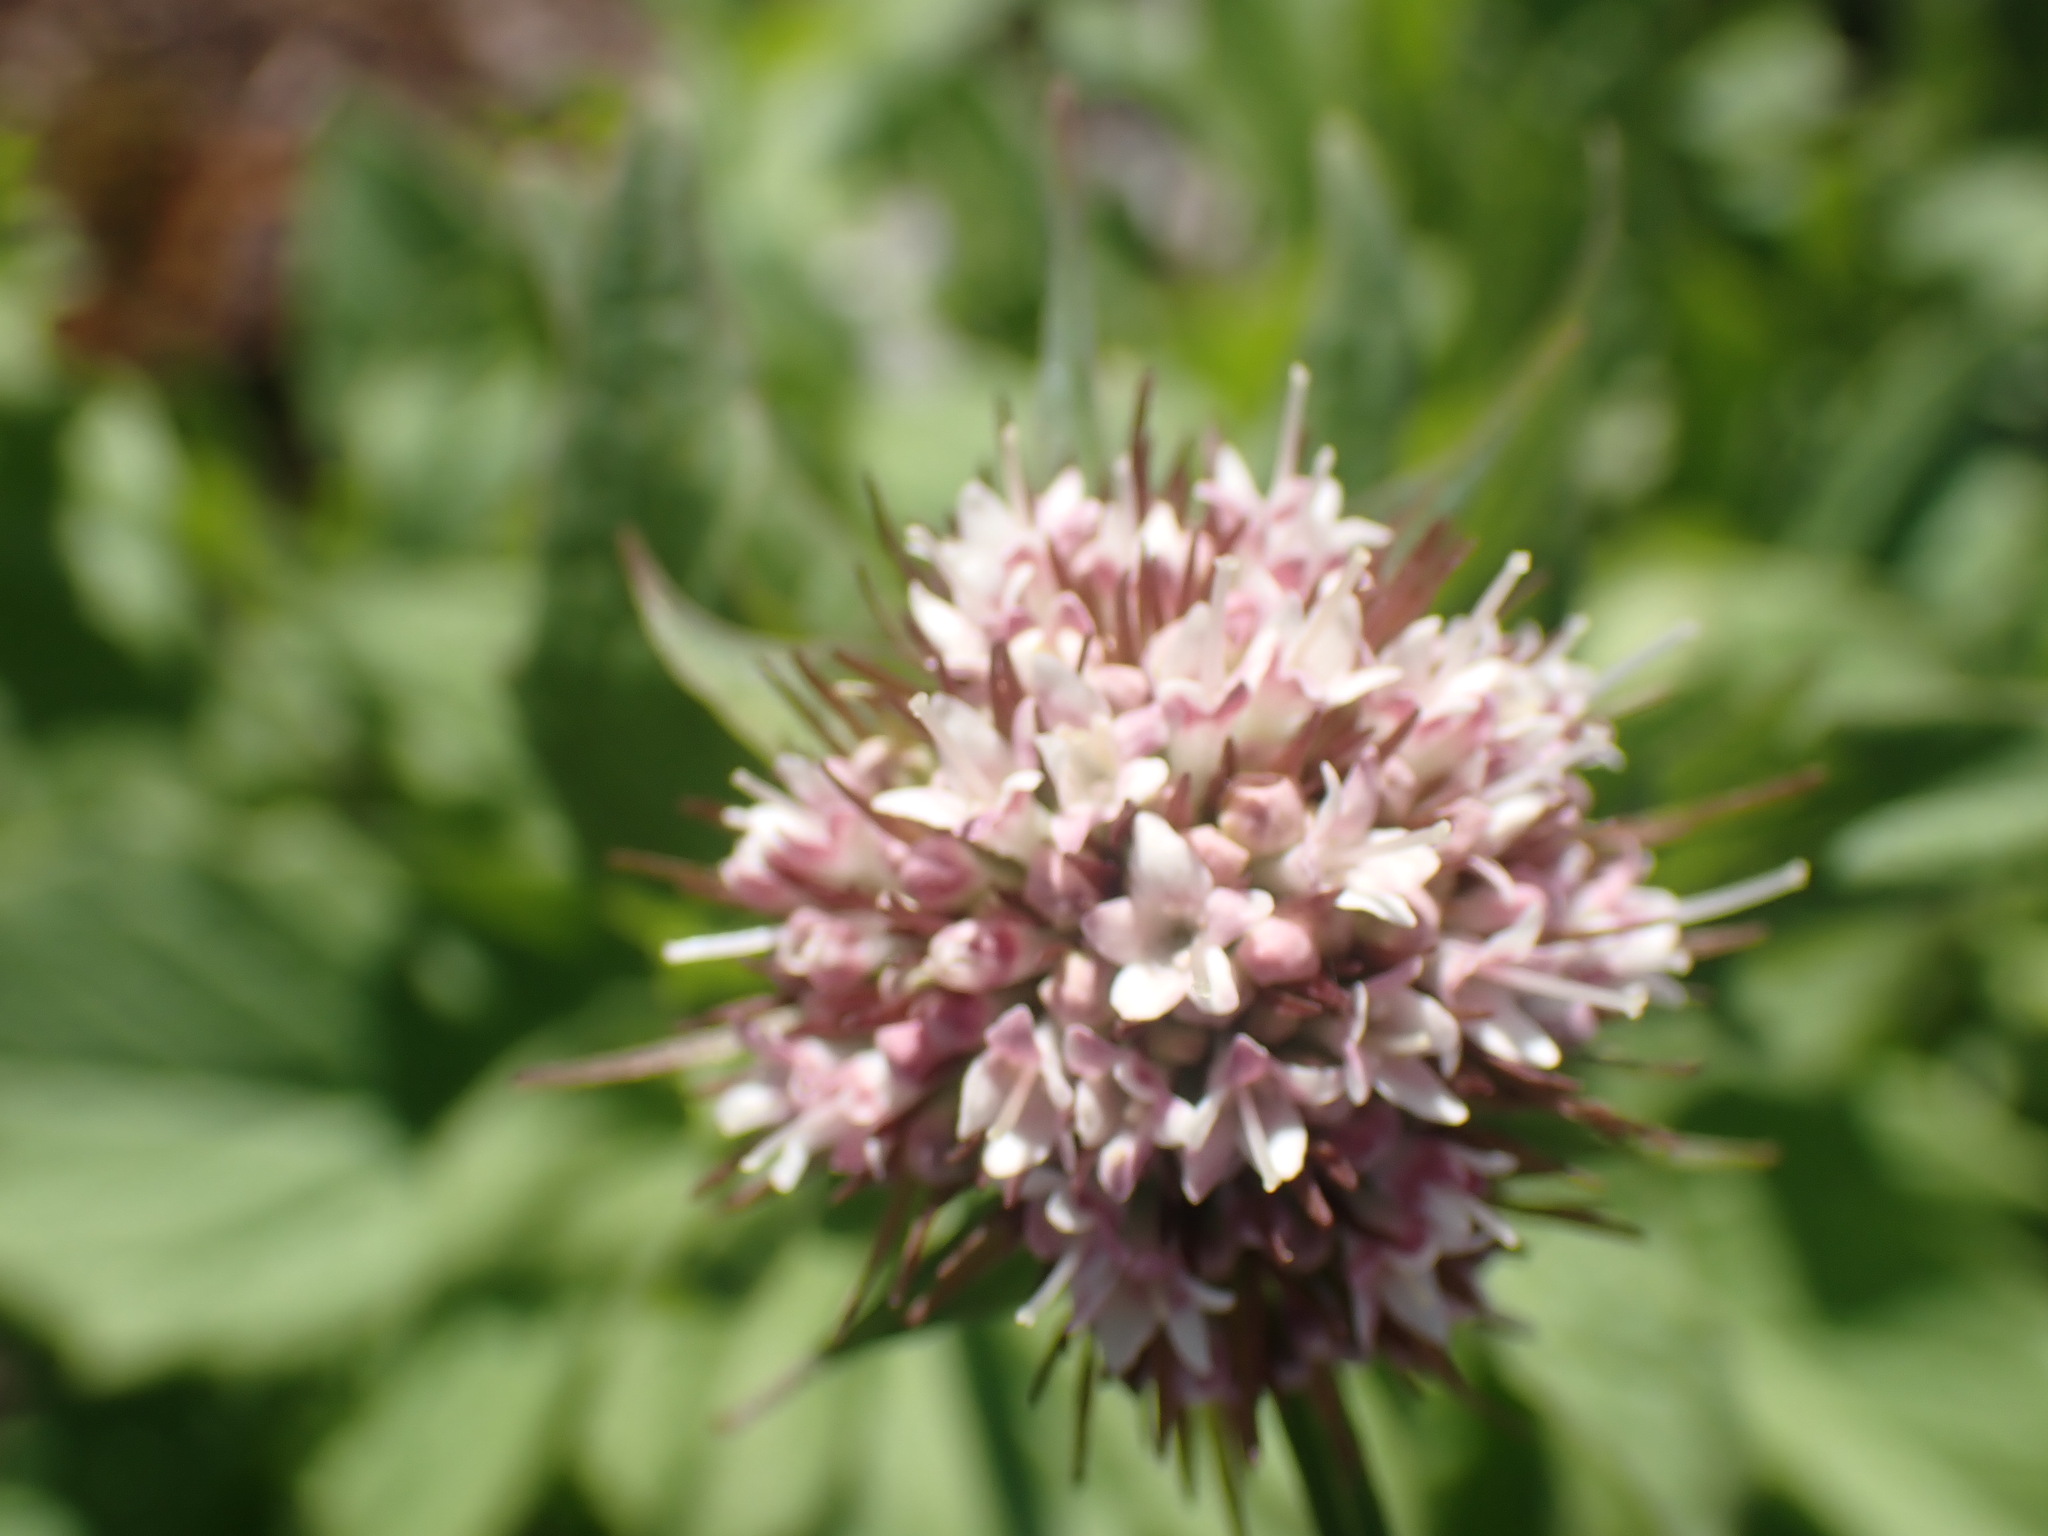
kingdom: Plantae
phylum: Tracheophyta
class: Magnoliopsida
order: Dipsacales
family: Caprifoliaceae
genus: Valeriana
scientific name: Valeriana sitchensis
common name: Pacific valerian
